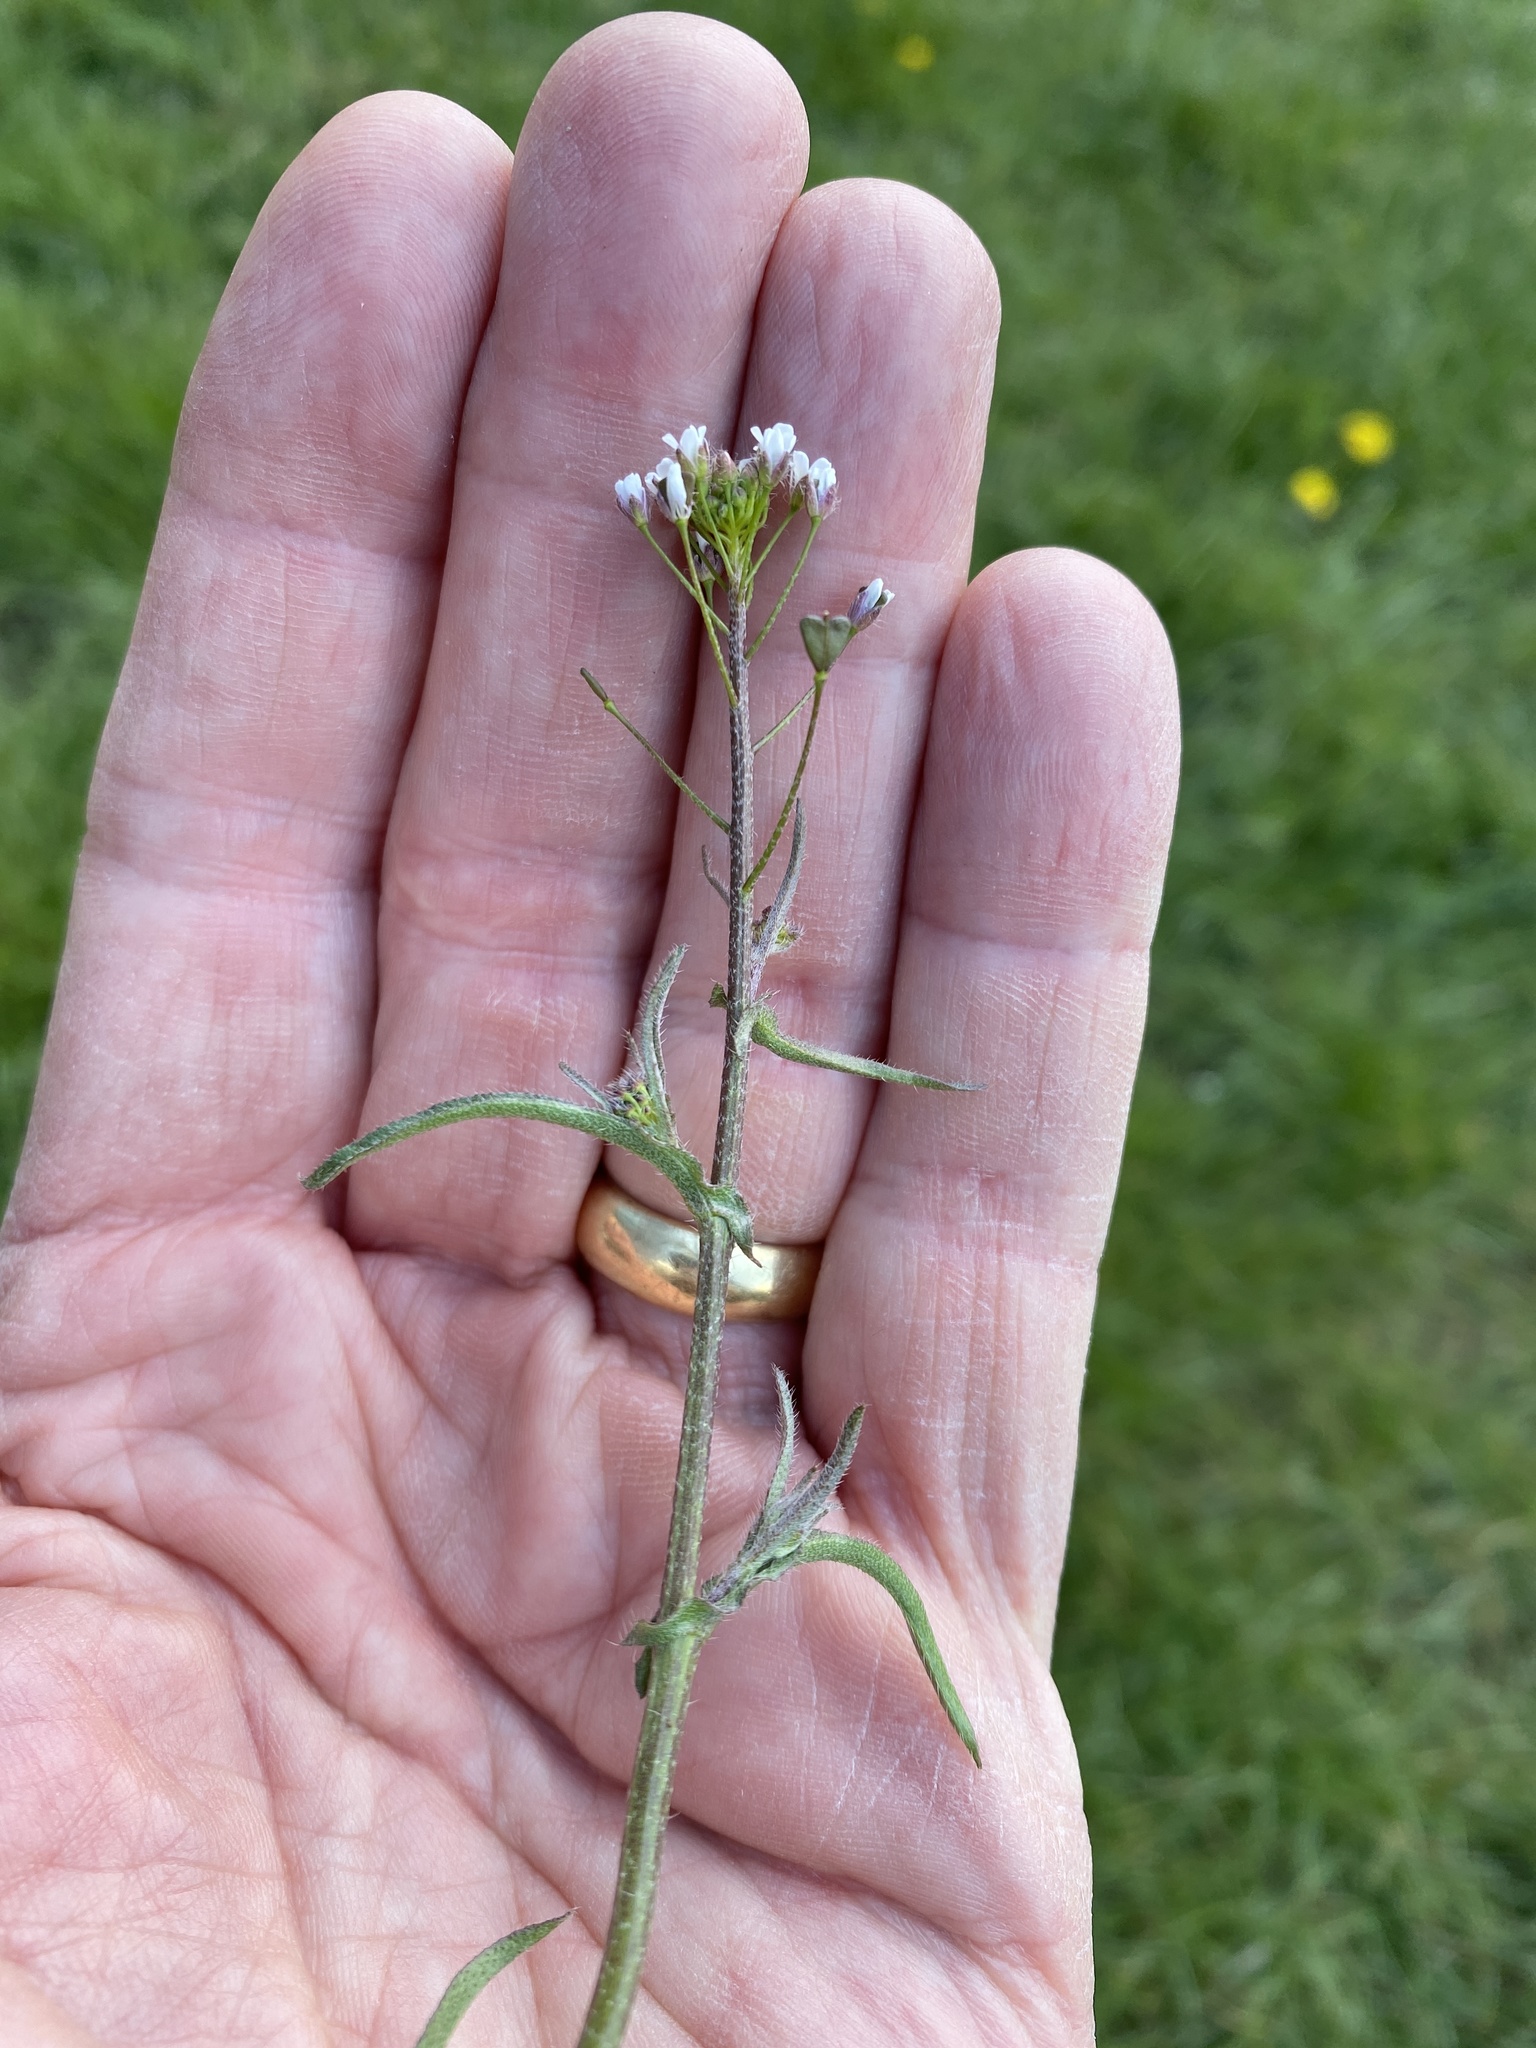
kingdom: Plantae
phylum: Tracheophyta
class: Magnoliopsida
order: Brassicales
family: Brassicaceae
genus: Capsella
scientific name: Capsella bursa-pastoris
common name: Shepherd's purse
